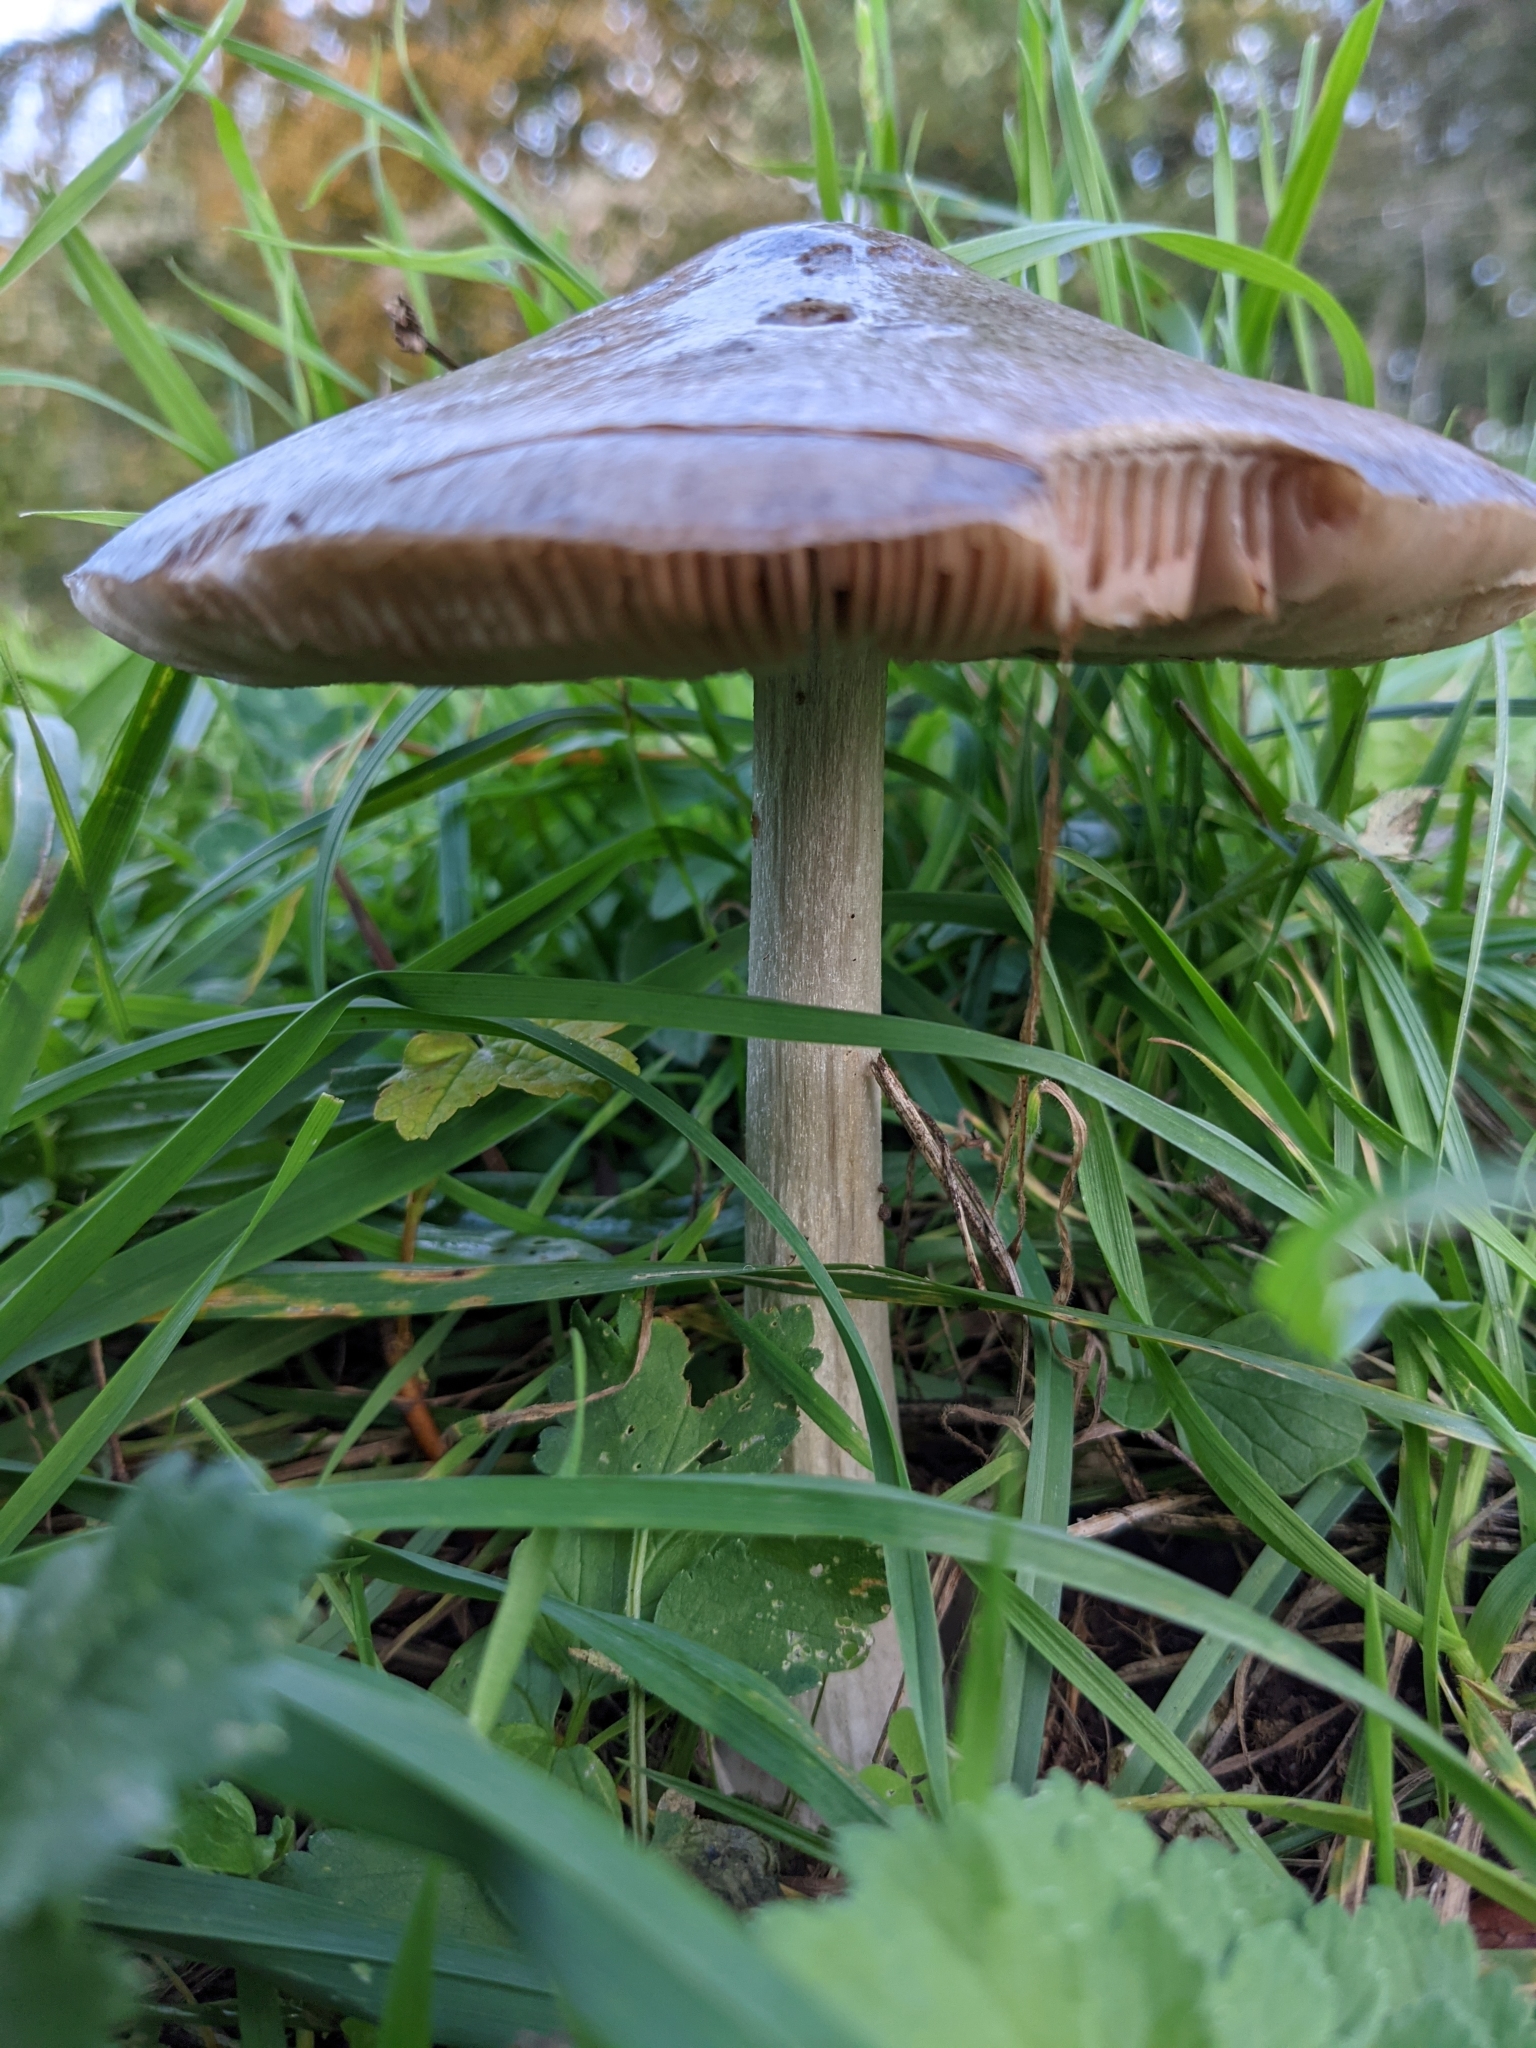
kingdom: Fungi
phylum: Basidiomycota
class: Agaricomycetes
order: Agaricales
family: Pluteaceae
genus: Volvopluteus
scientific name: Volvopluteus gloiocephalus
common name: Stubble rosegill
